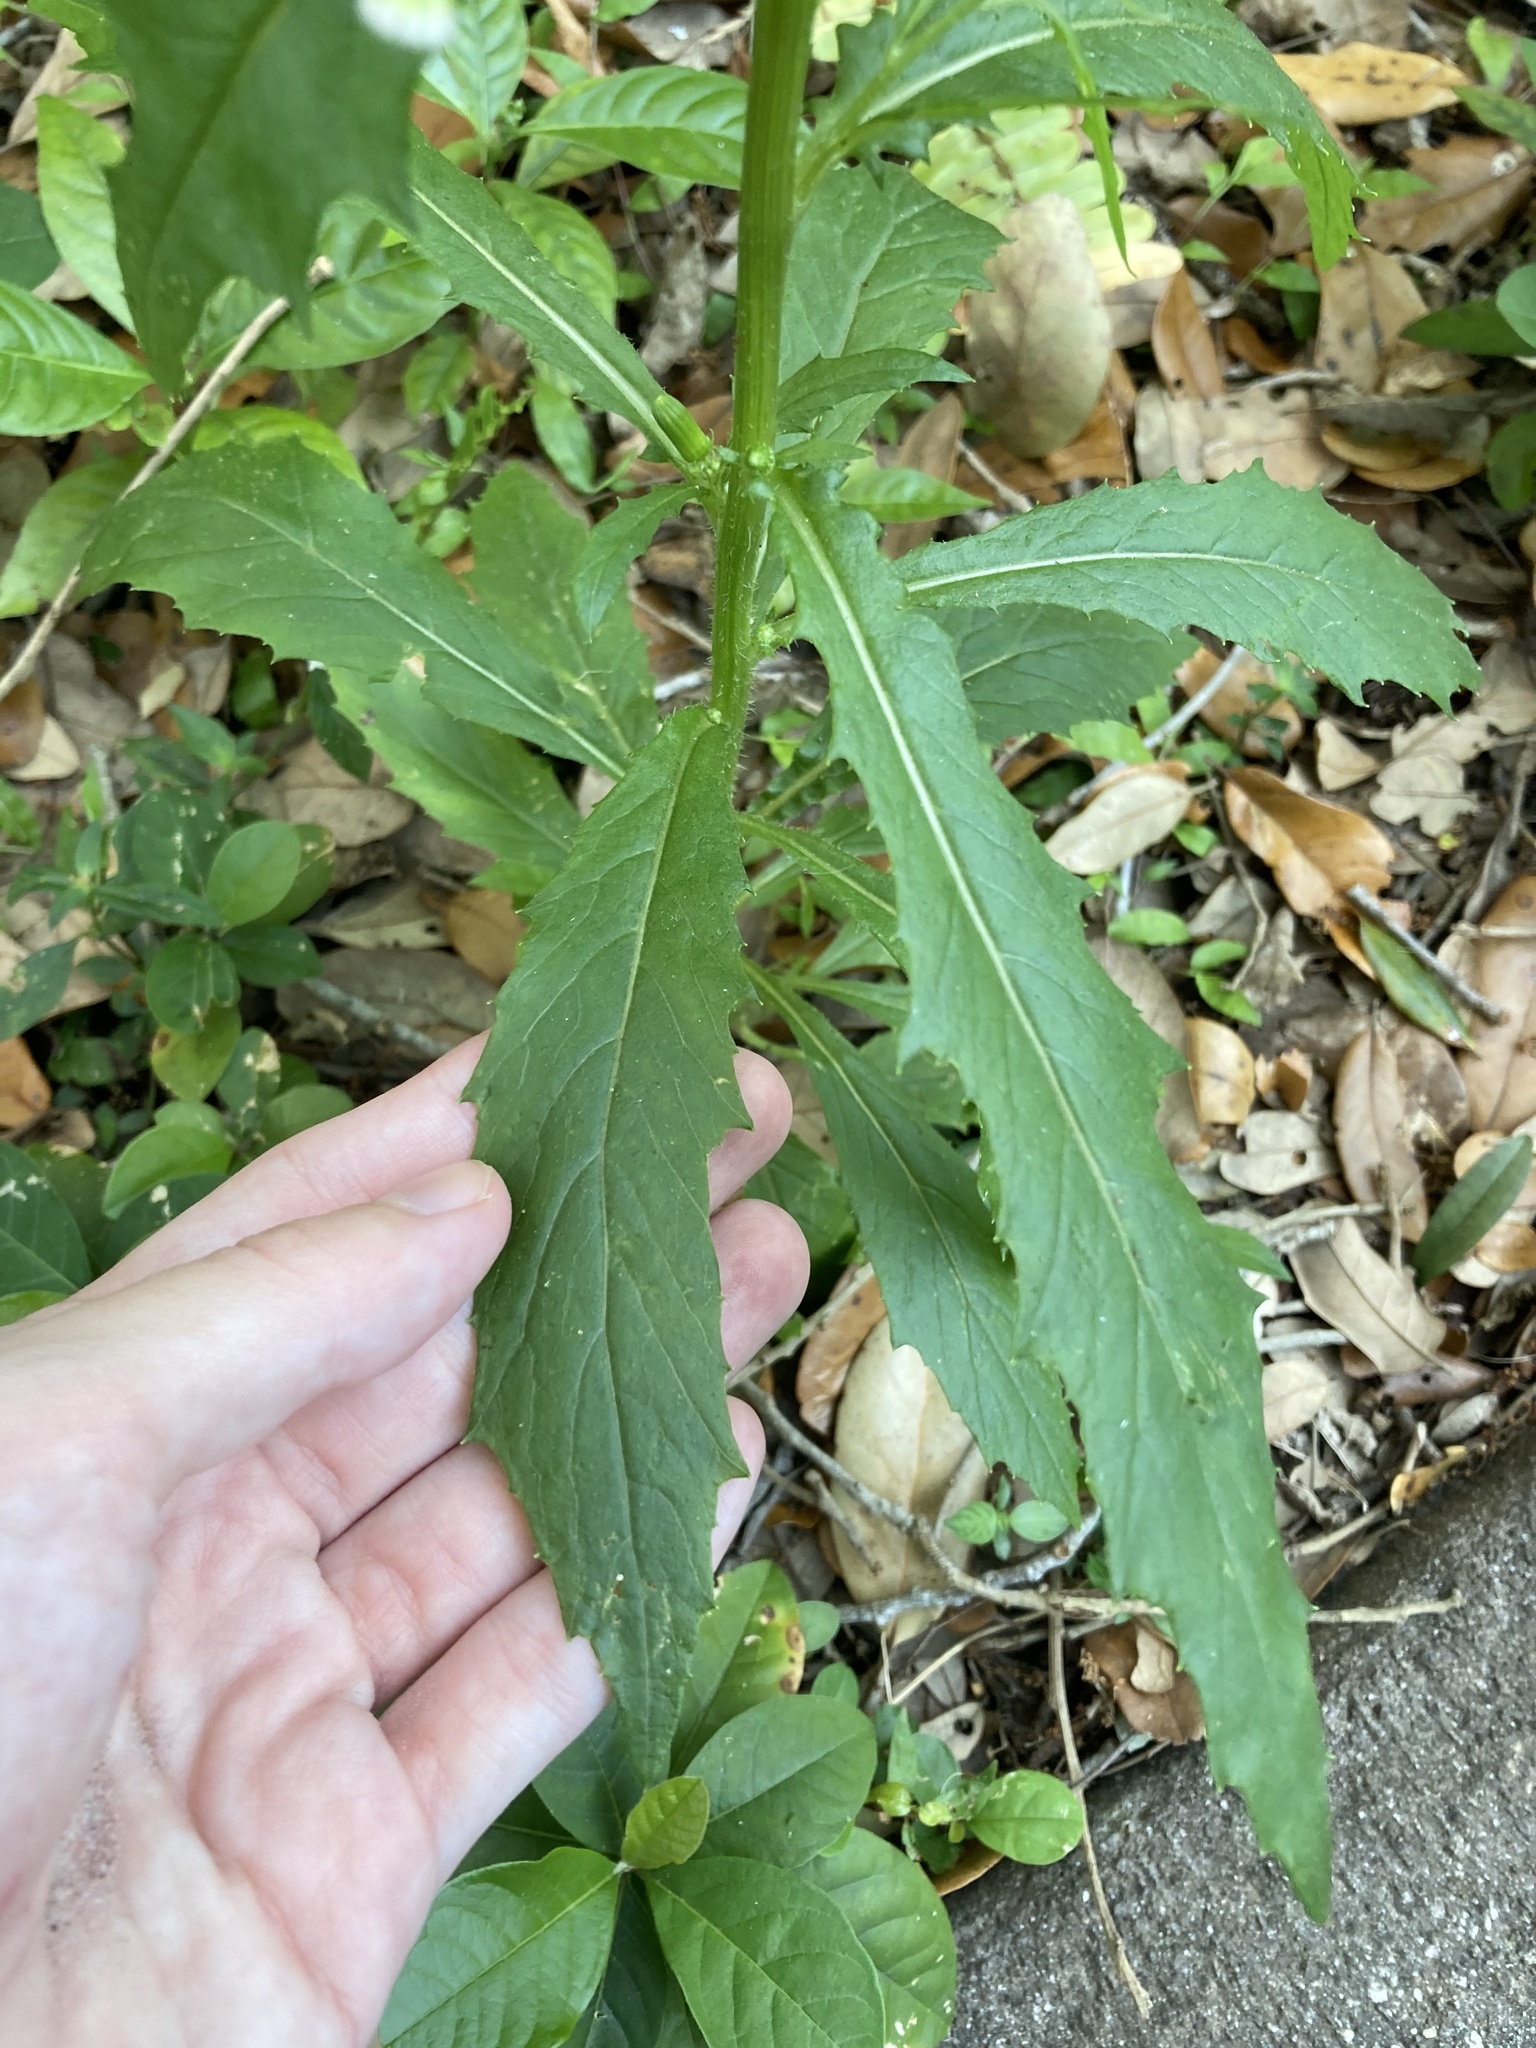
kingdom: Plantae
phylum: Tracheophyta
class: Magnoliopsida
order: Asterales
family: Asteraceae
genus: Erechtites
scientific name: Erechtites hieraciifolius
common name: American burnweed
